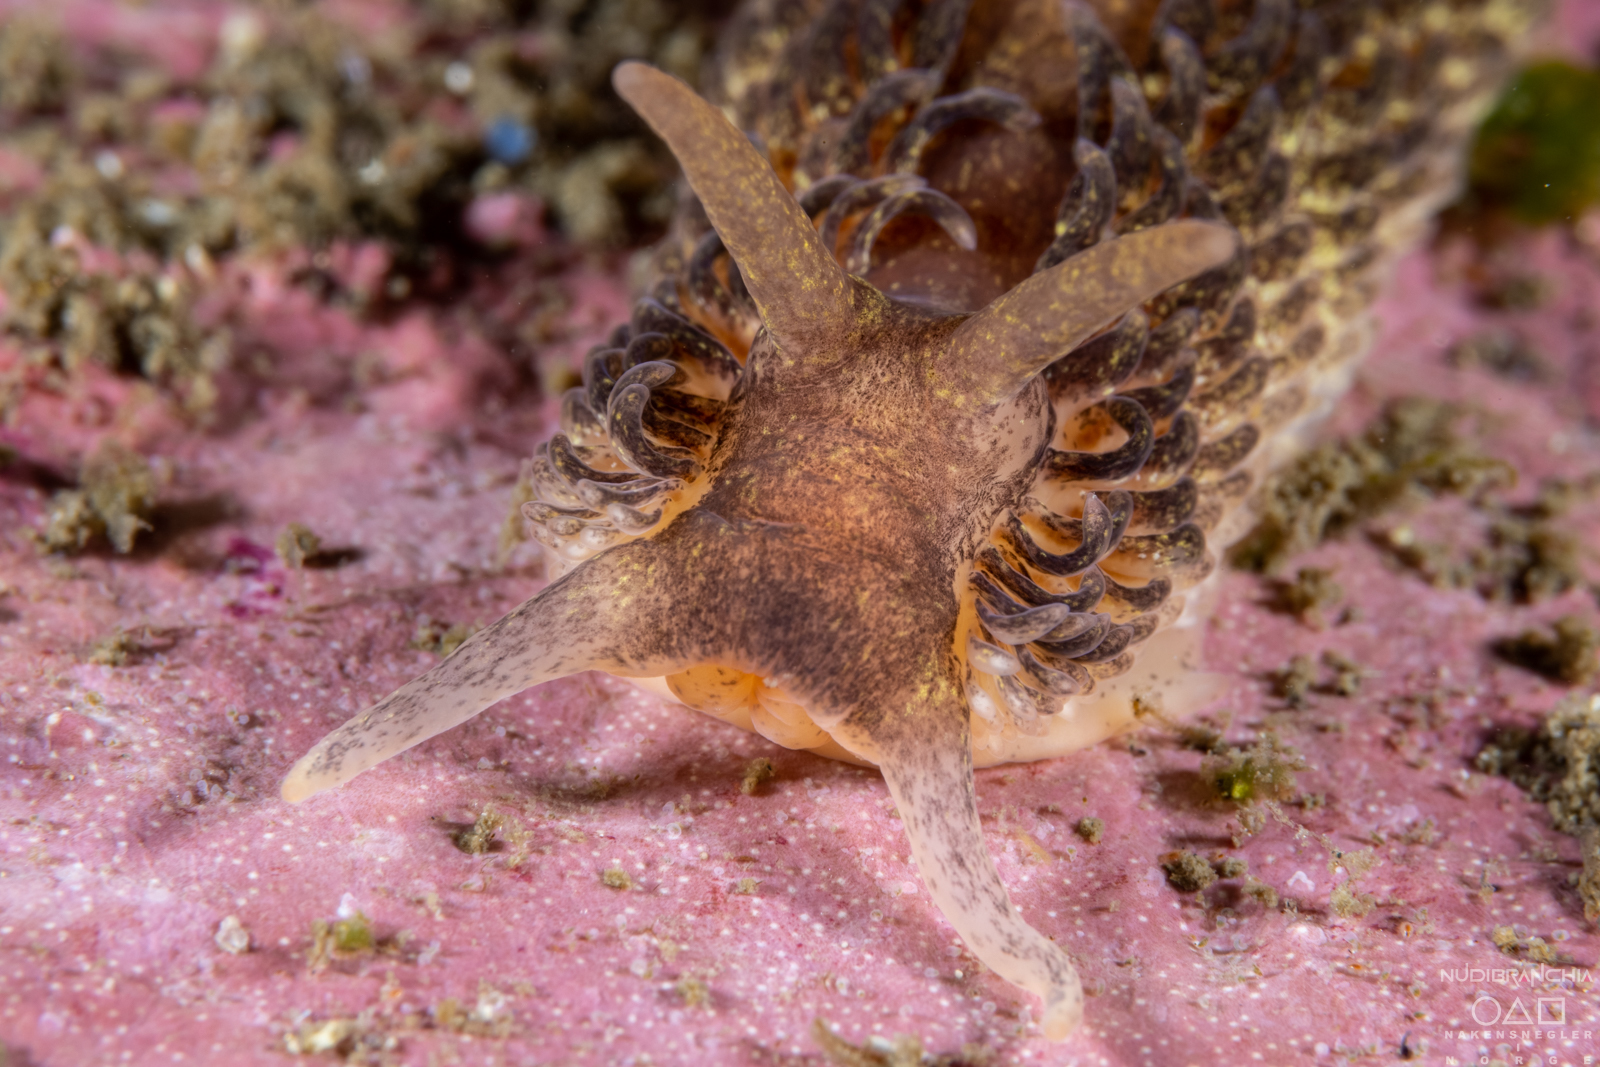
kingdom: Animalia
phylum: Mollusca
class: Gastropoda
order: Nudibranchia
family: Aeolidiidae
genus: Aeolidia
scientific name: Aeolidia papillosa
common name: Common grey sea slug
